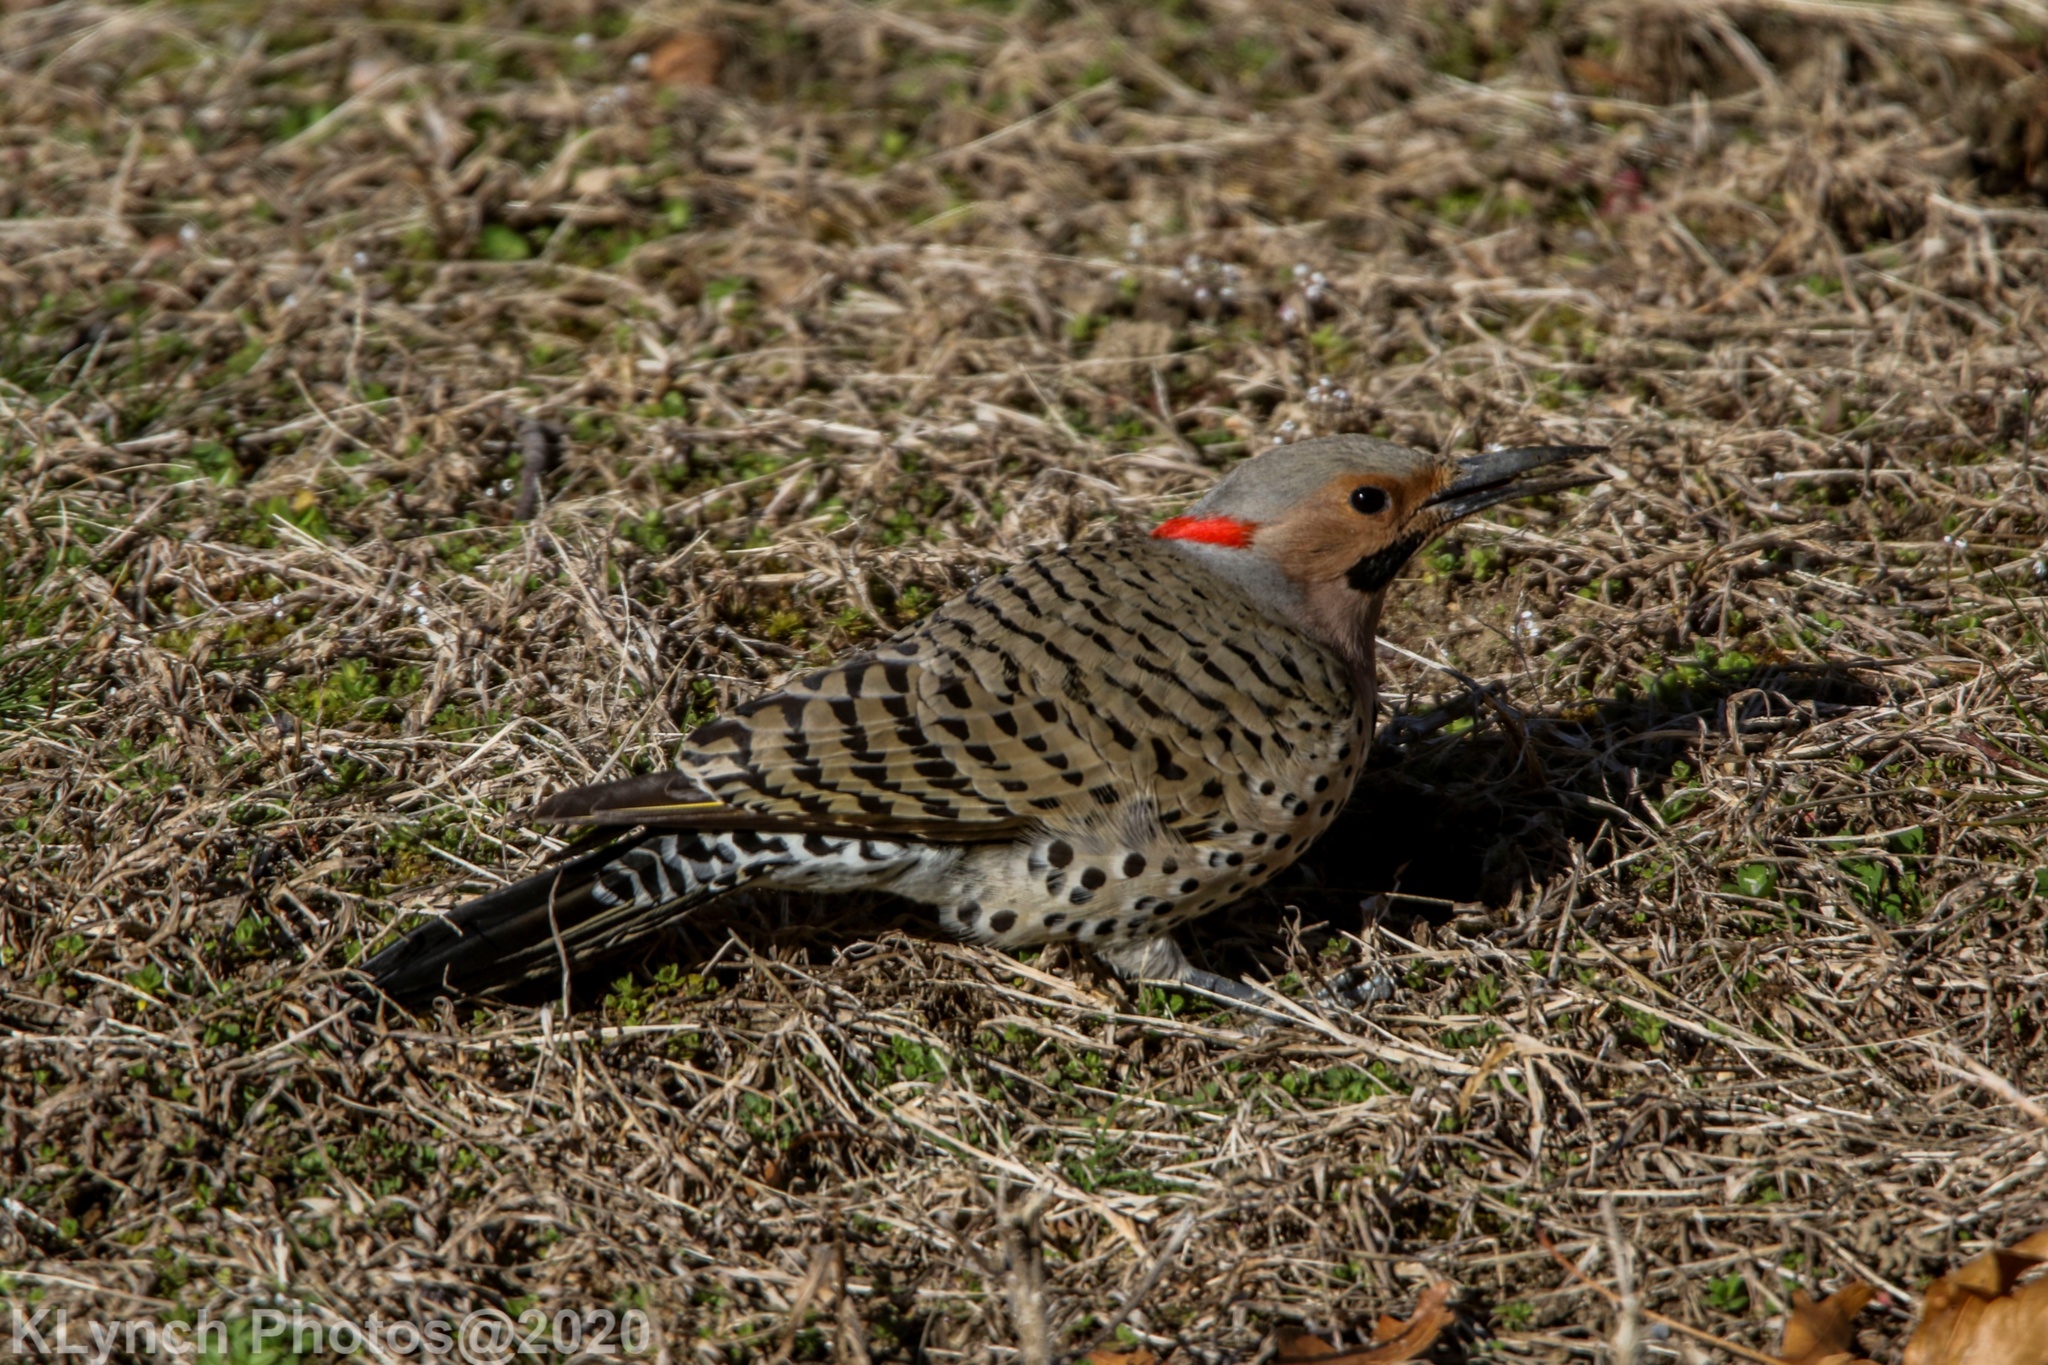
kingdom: Animalia
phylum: Chordata
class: Aves
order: Piciformes
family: Picidae
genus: Colaptes
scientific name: Colaptes auratus
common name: Northern flicker
